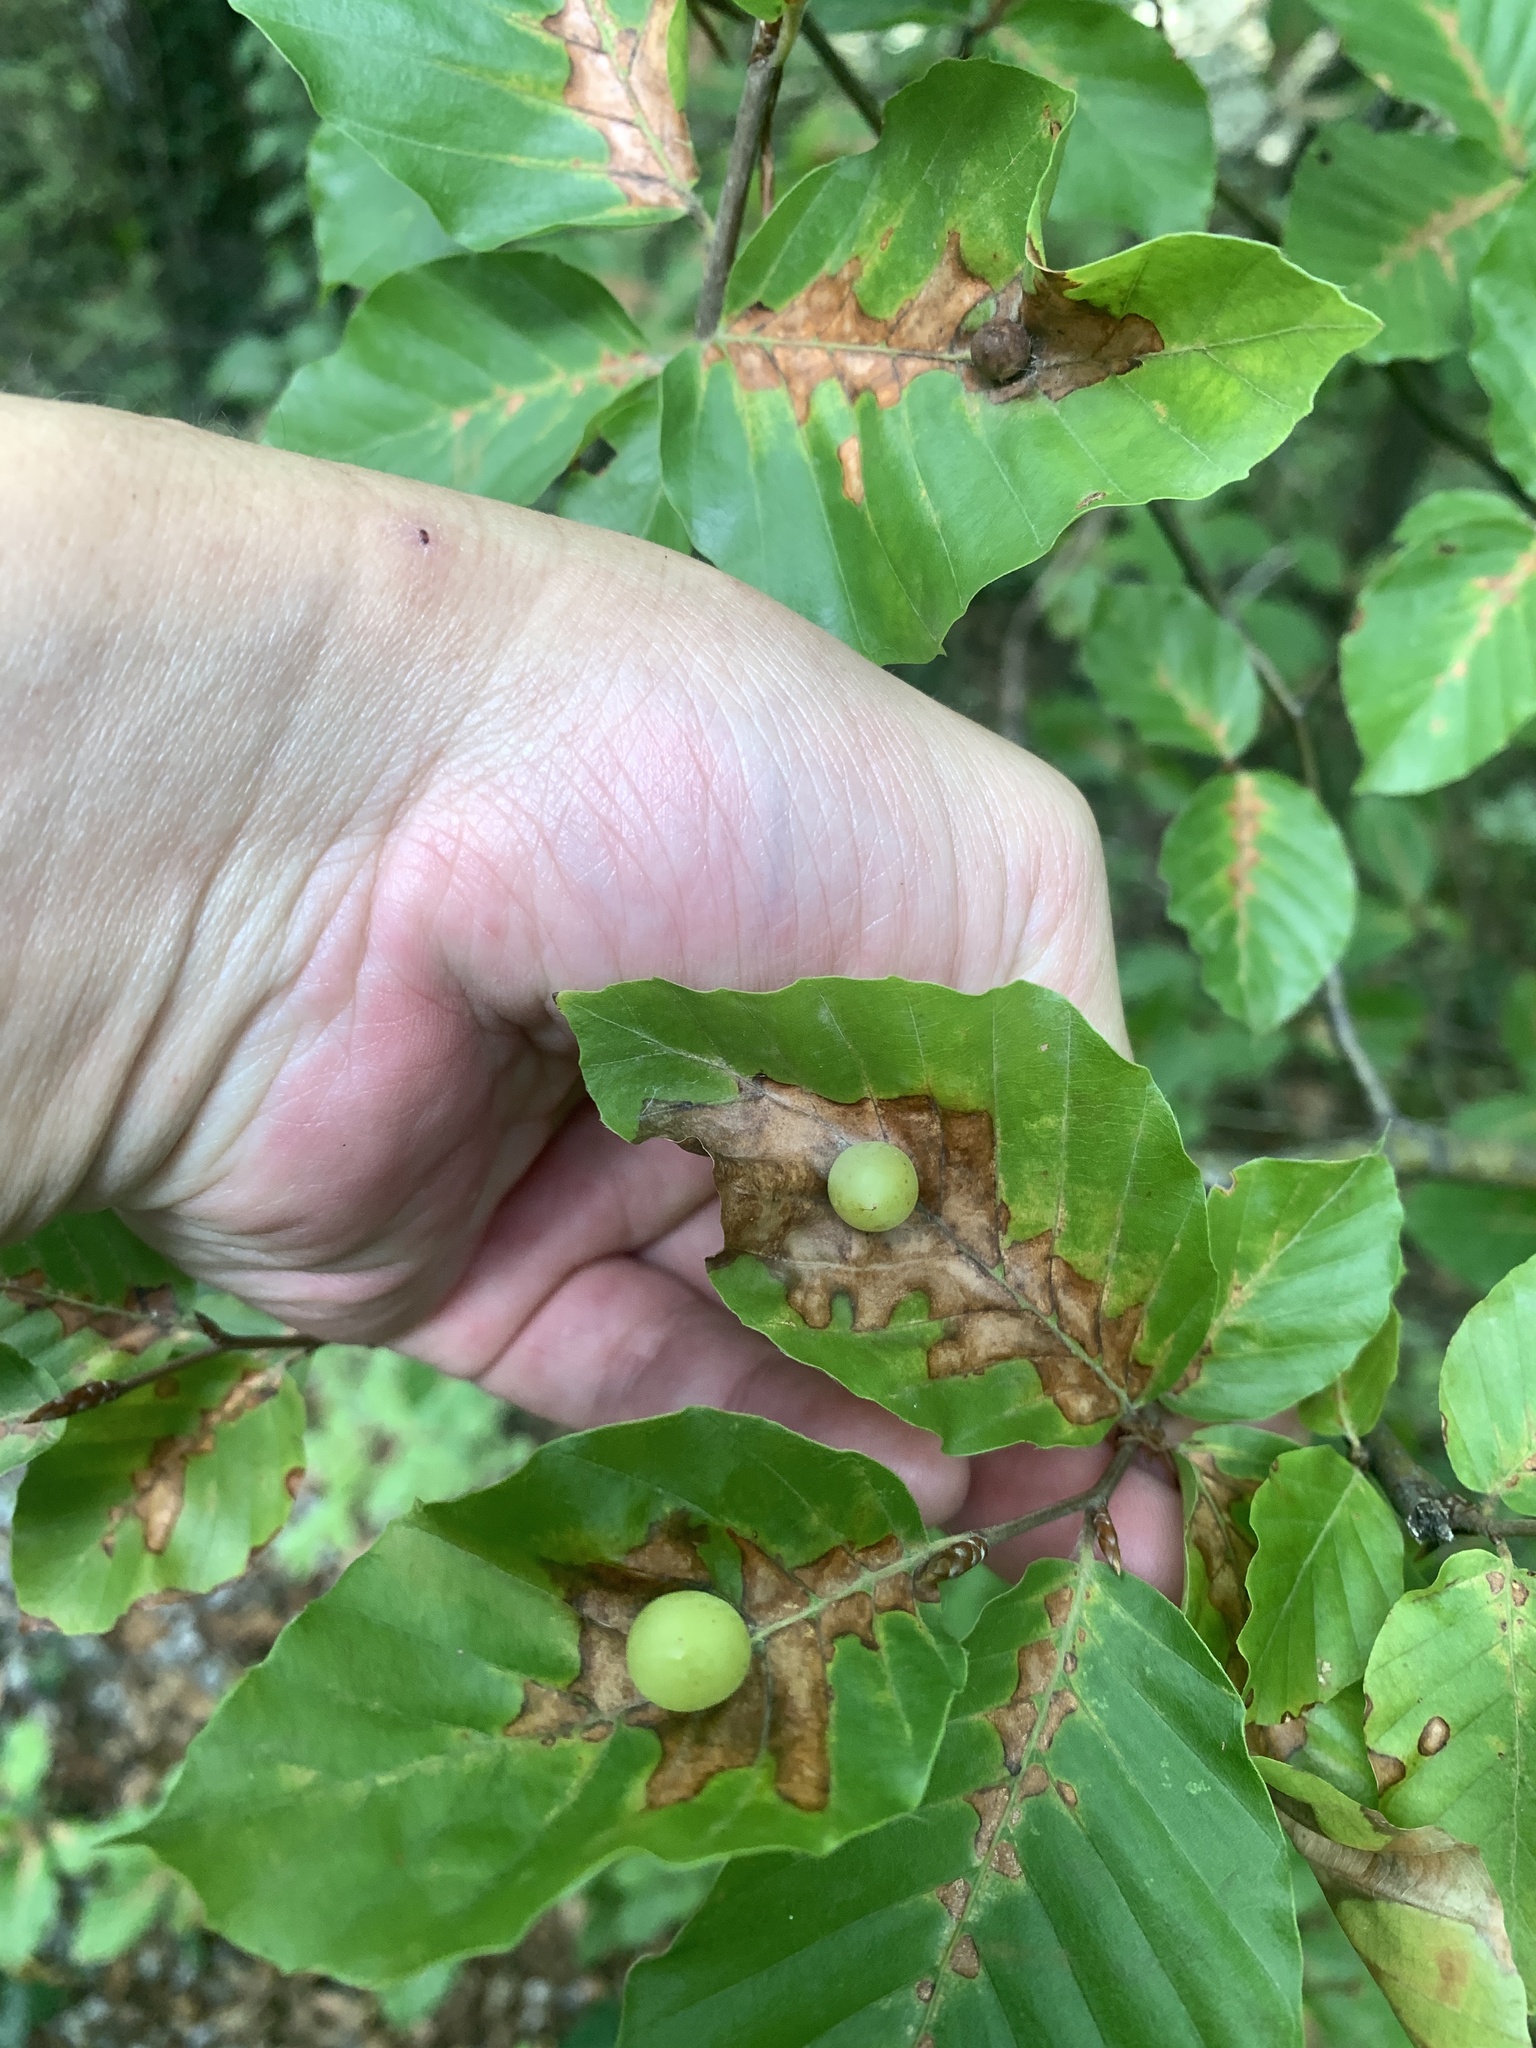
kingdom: Plantae
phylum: Tracheophyta
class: Magnoliopsida
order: Fagales
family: Fagaceae
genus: Fagus
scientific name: Fagus sylvatica
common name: Beech
